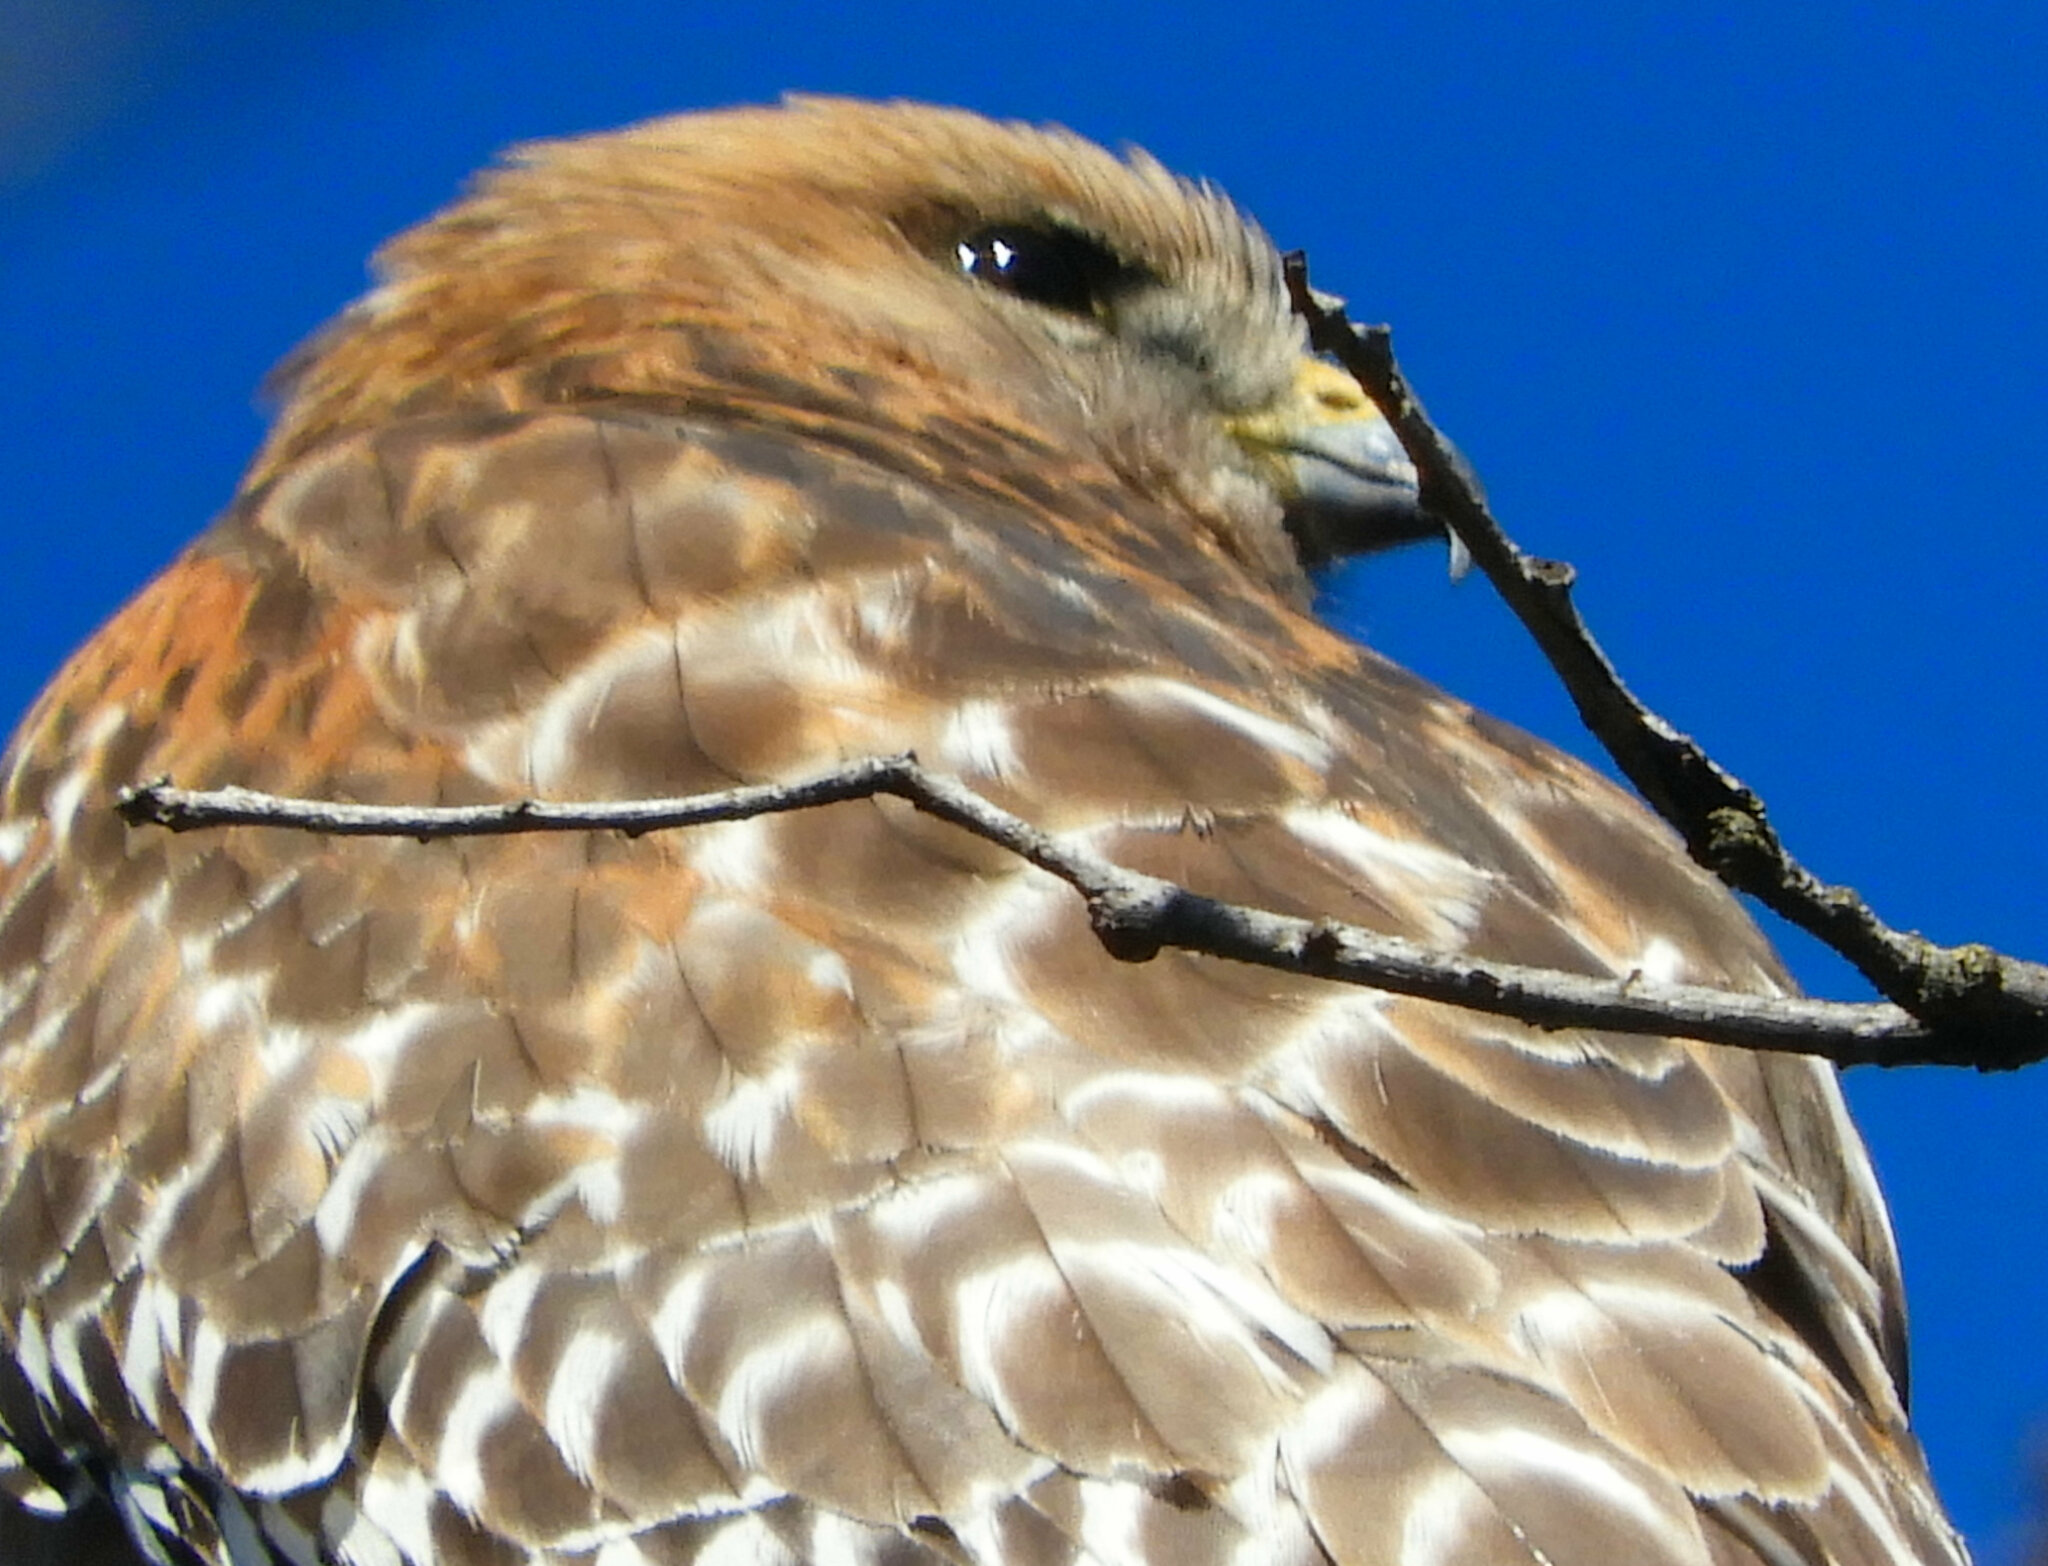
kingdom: Animalia
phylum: Chordata
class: Aves
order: Accipitriformes
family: Accipitridae
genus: Buteo
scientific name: Buteo lineatus
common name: Red-shouldered hawk
